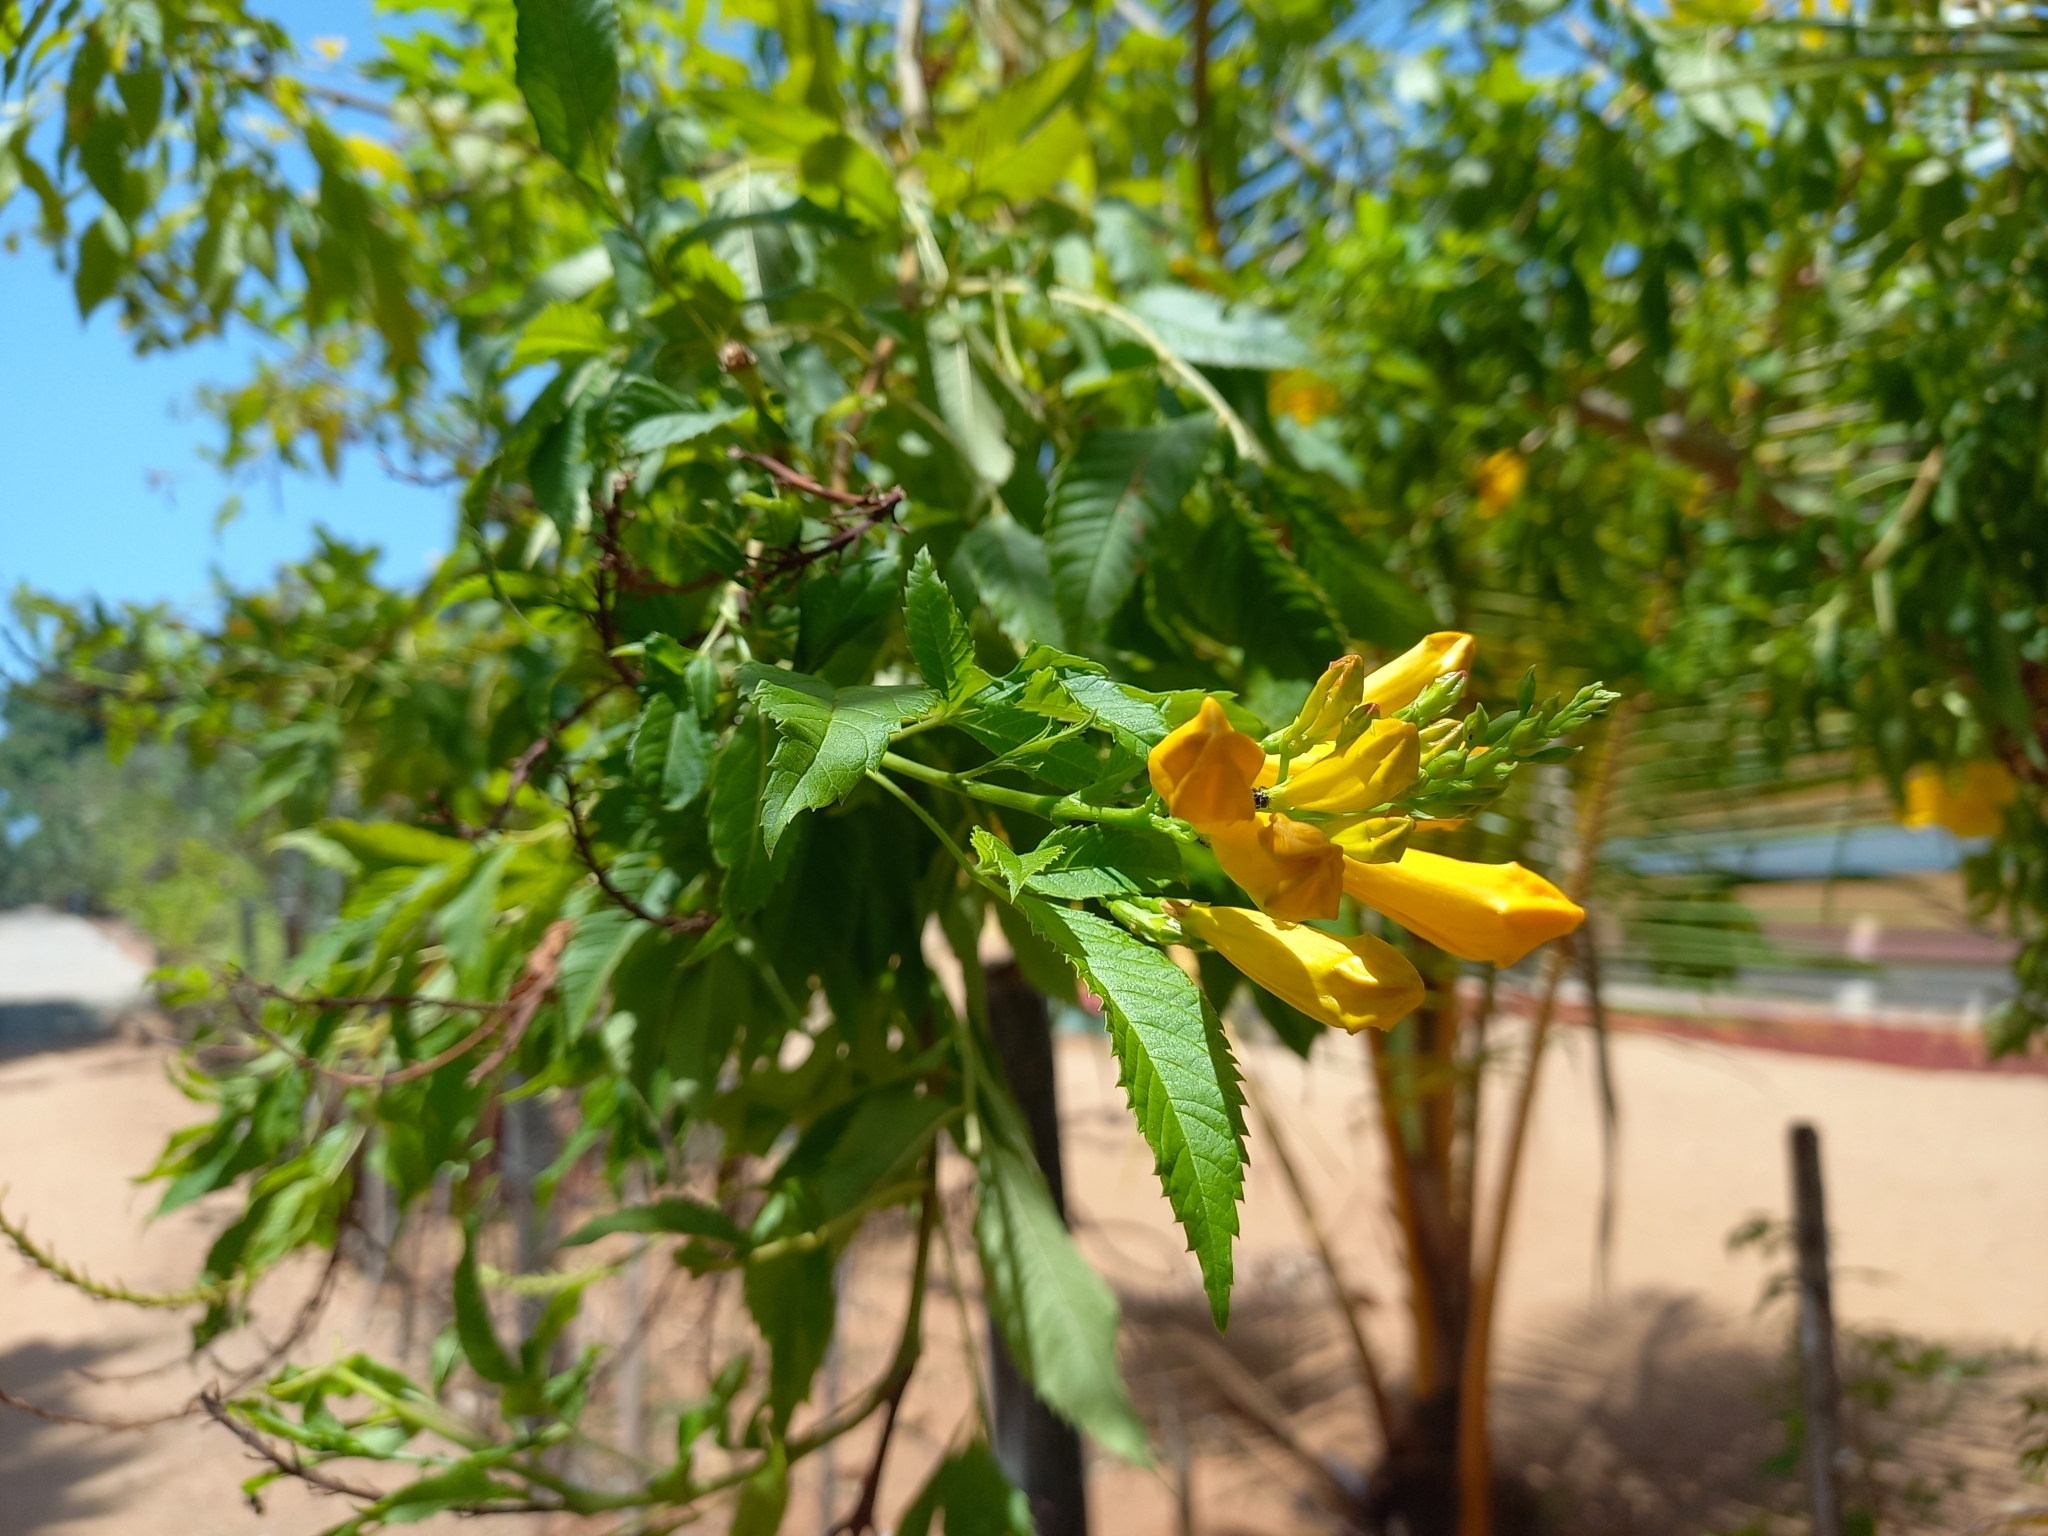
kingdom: Plantae
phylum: Tracheophyta
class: Magnoliopsida
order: Lamiales
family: Bignoniaceae
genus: Tecoma
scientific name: Tecoma stans
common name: Yellow trumpetbush
